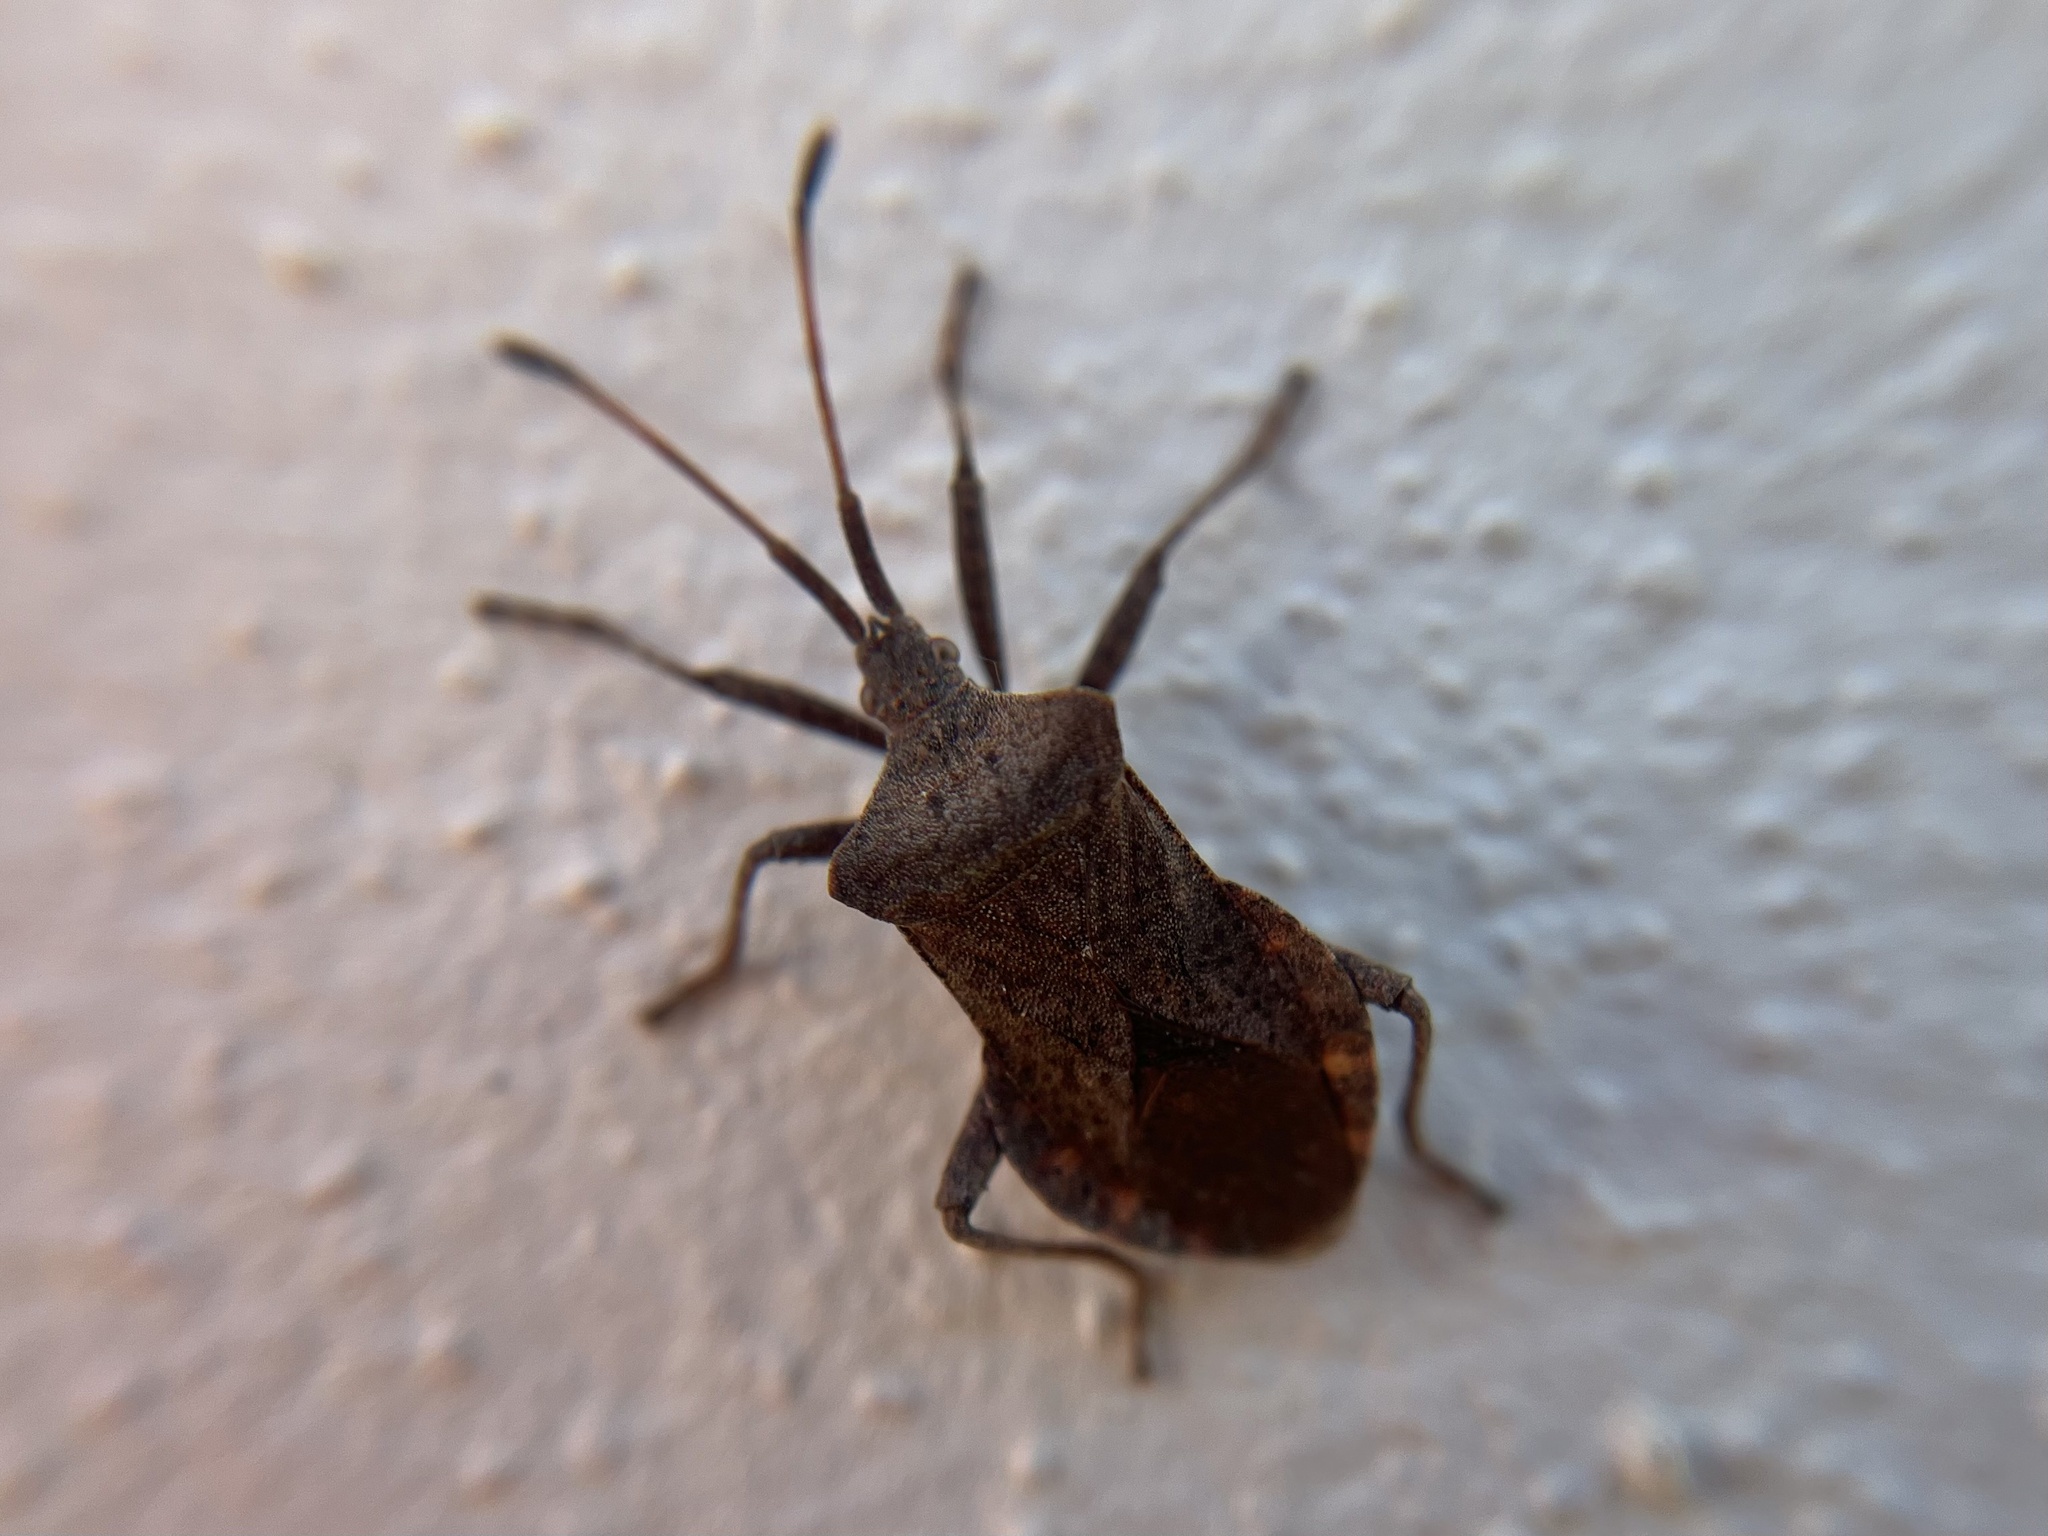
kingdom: Animalia
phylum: Arthropoda
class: Insecta
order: Hemiptera
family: Coreidae
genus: Coreus
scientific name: Coreus marginatus
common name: Dock bug
